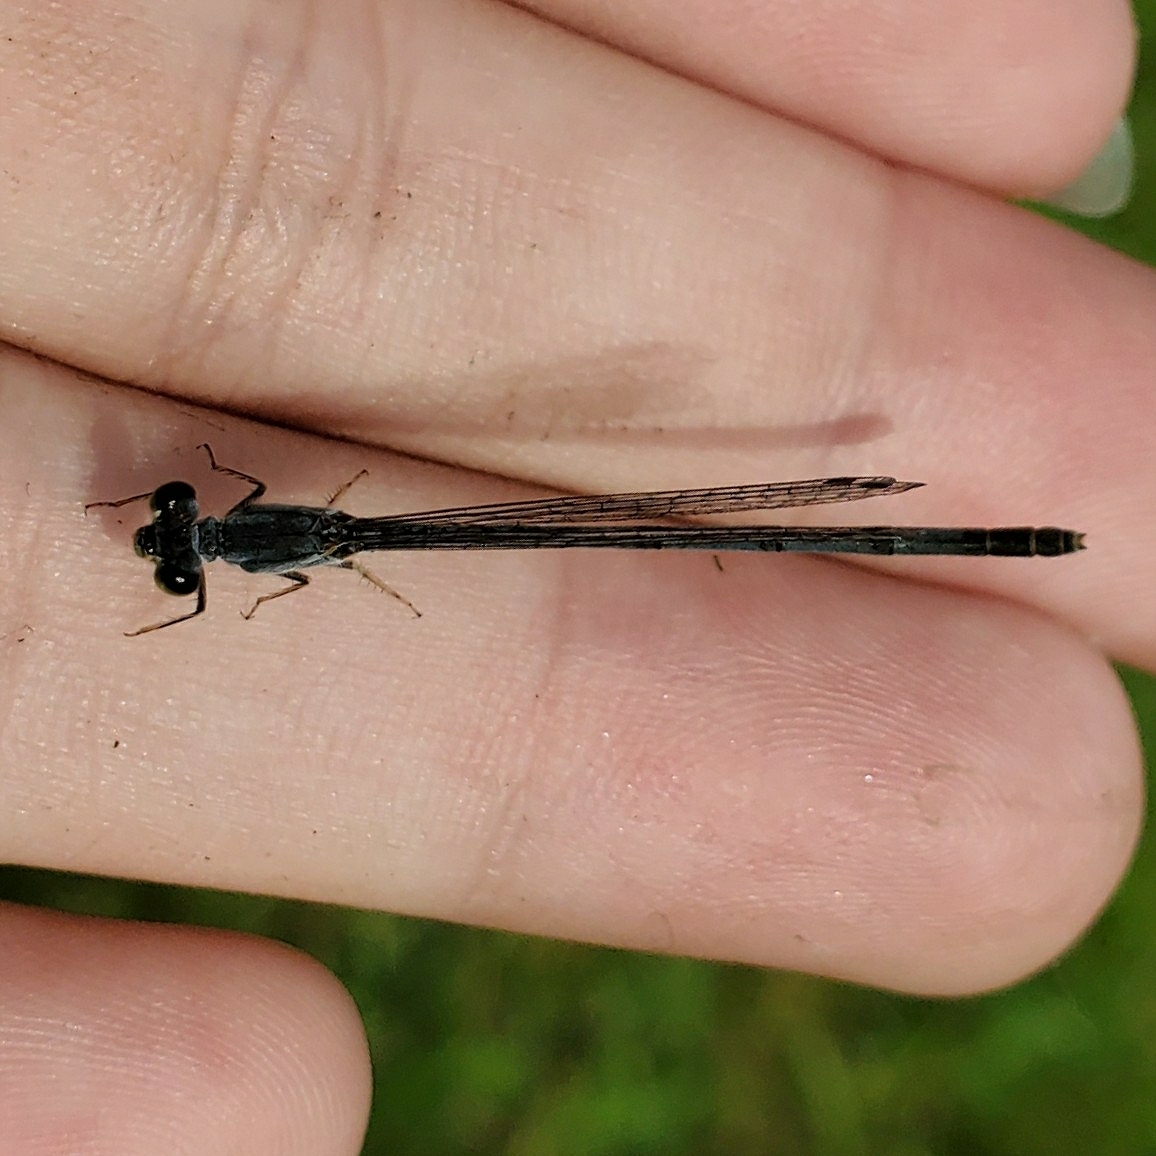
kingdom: Animalia
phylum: Arthropoda
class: Insecta
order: Odonata
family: Coenagrionidae
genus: Ischnura
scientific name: Ischnura posita
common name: Fragile forktail
